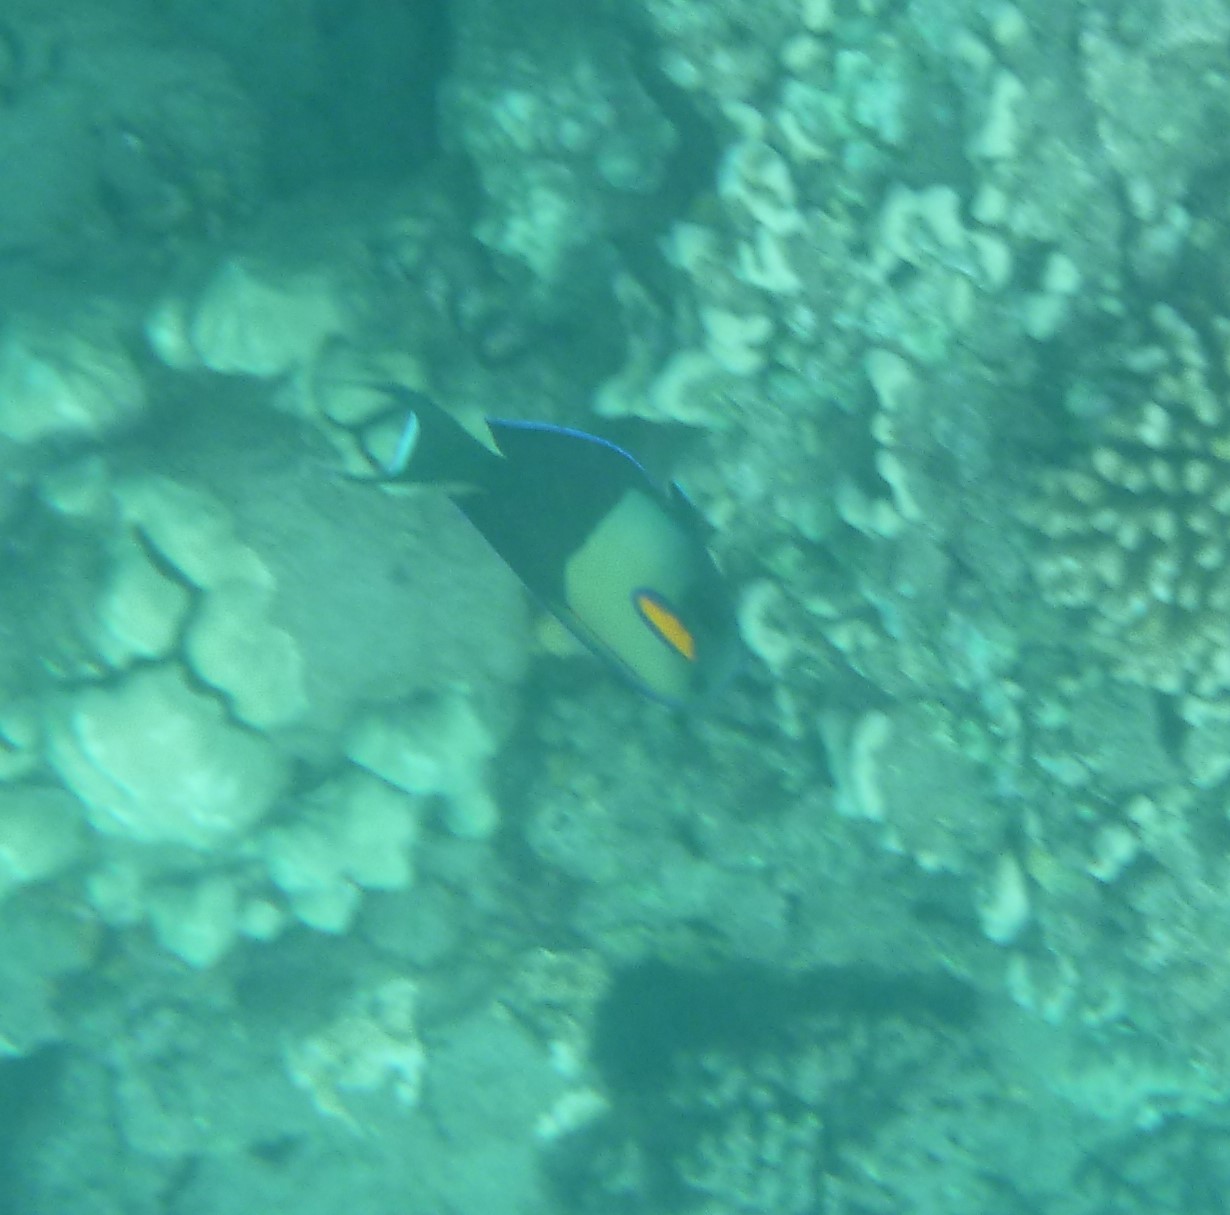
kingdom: Animalia
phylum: Chordata
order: Perciformes
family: Acanthuridae
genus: Acanthurus
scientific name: Acanthurus olivaceus
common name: Gendarme fish
